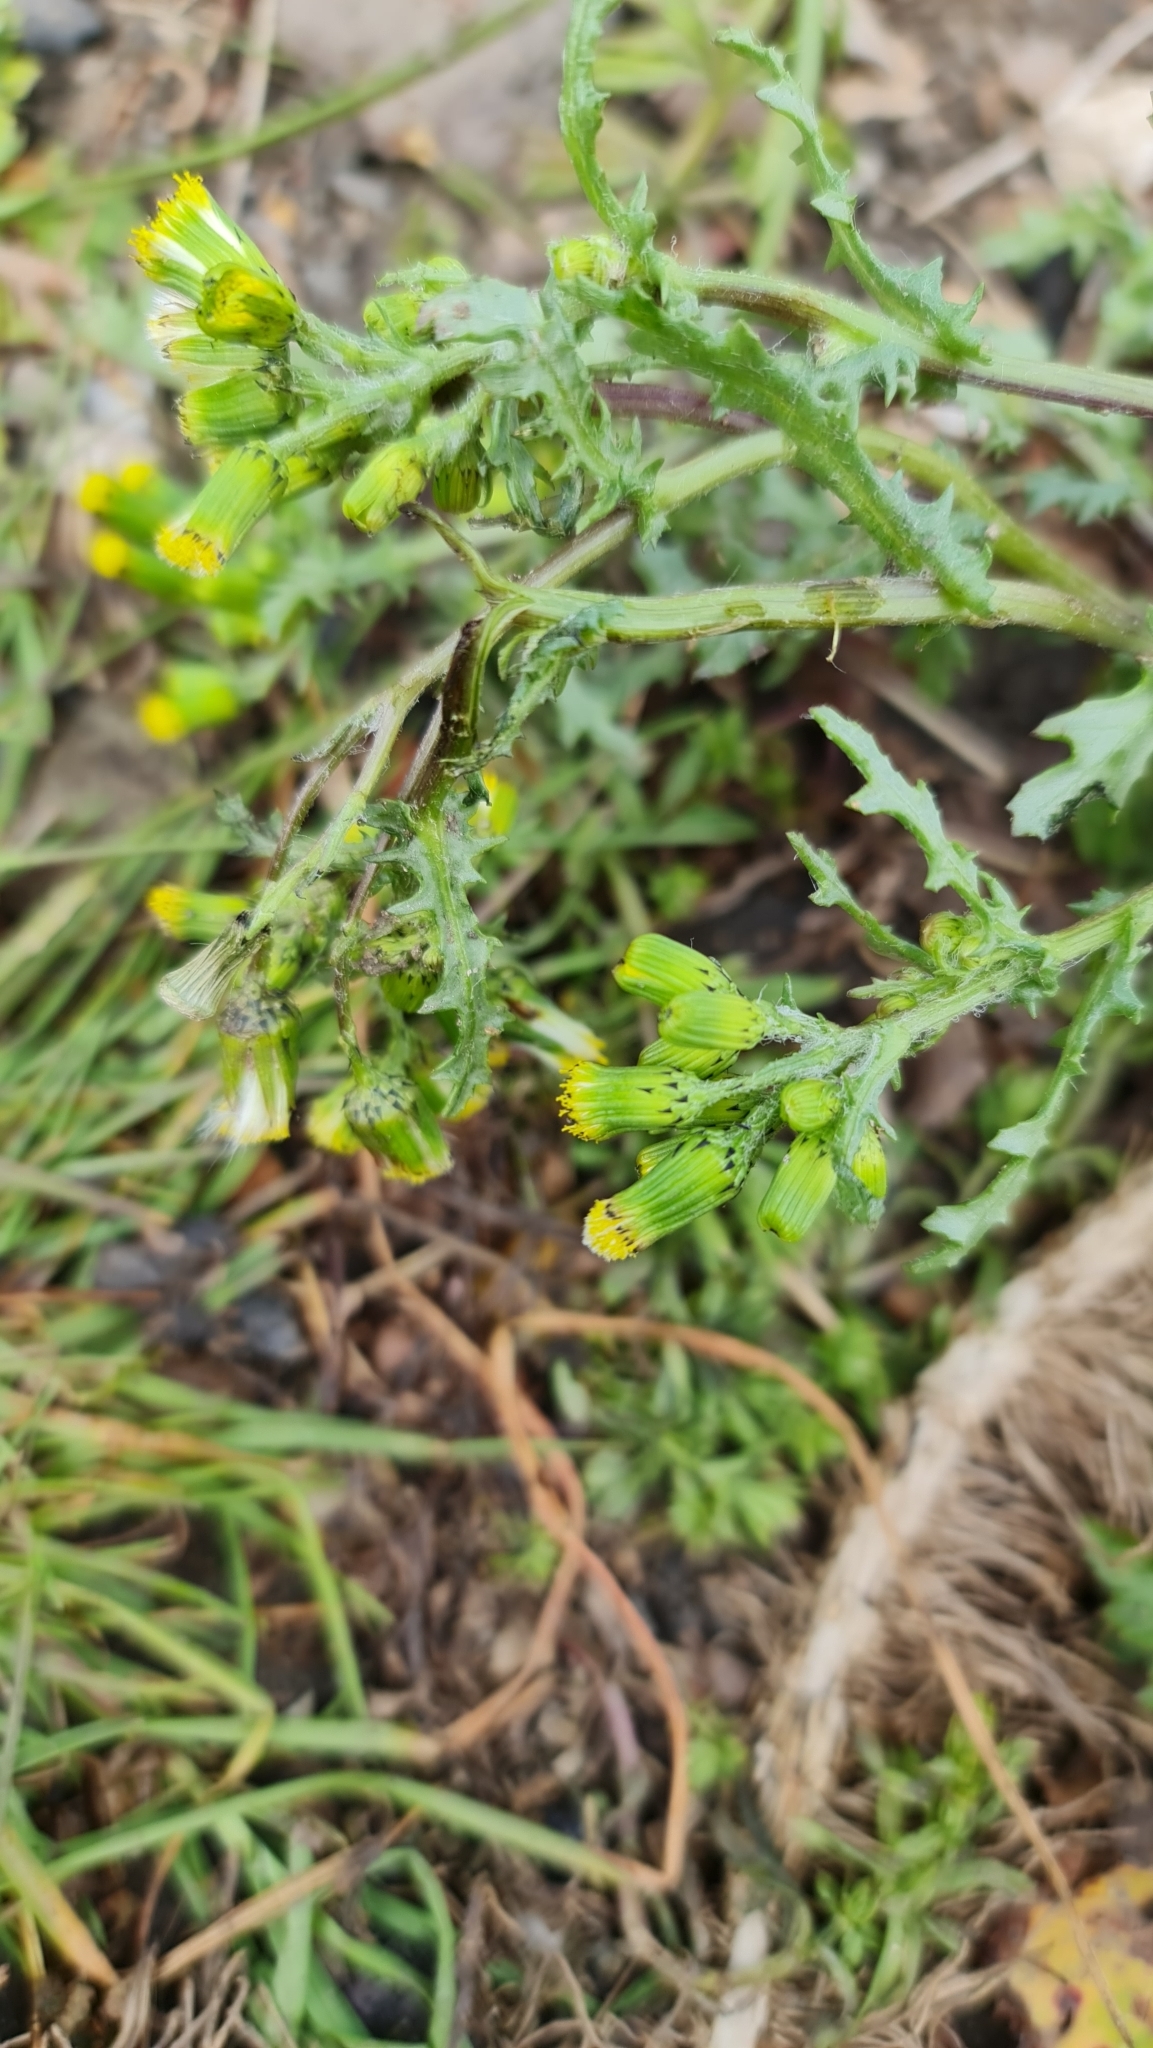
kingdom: Plantae
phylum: Tracheophyta
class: Magnoliopsida
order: Asterales
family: Asteraceae
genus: Senecio
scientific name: Senecio vulgaris
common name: Old-man-in-the-spring
